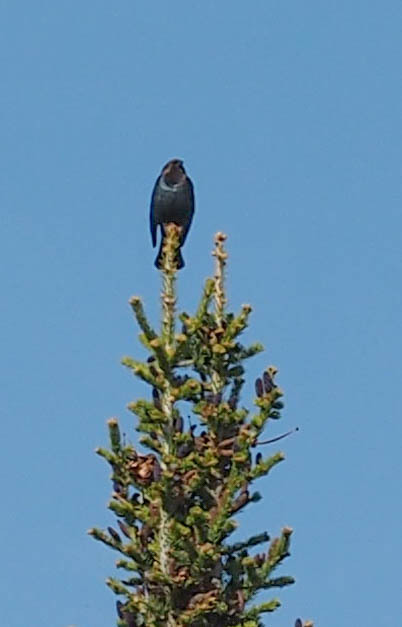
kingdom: Animalia
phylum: Chordata
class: Aves
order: Passeriformes
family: Icteridae
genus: Molothrus
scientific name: Molothrus ater
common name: Brown-headed cowbird
